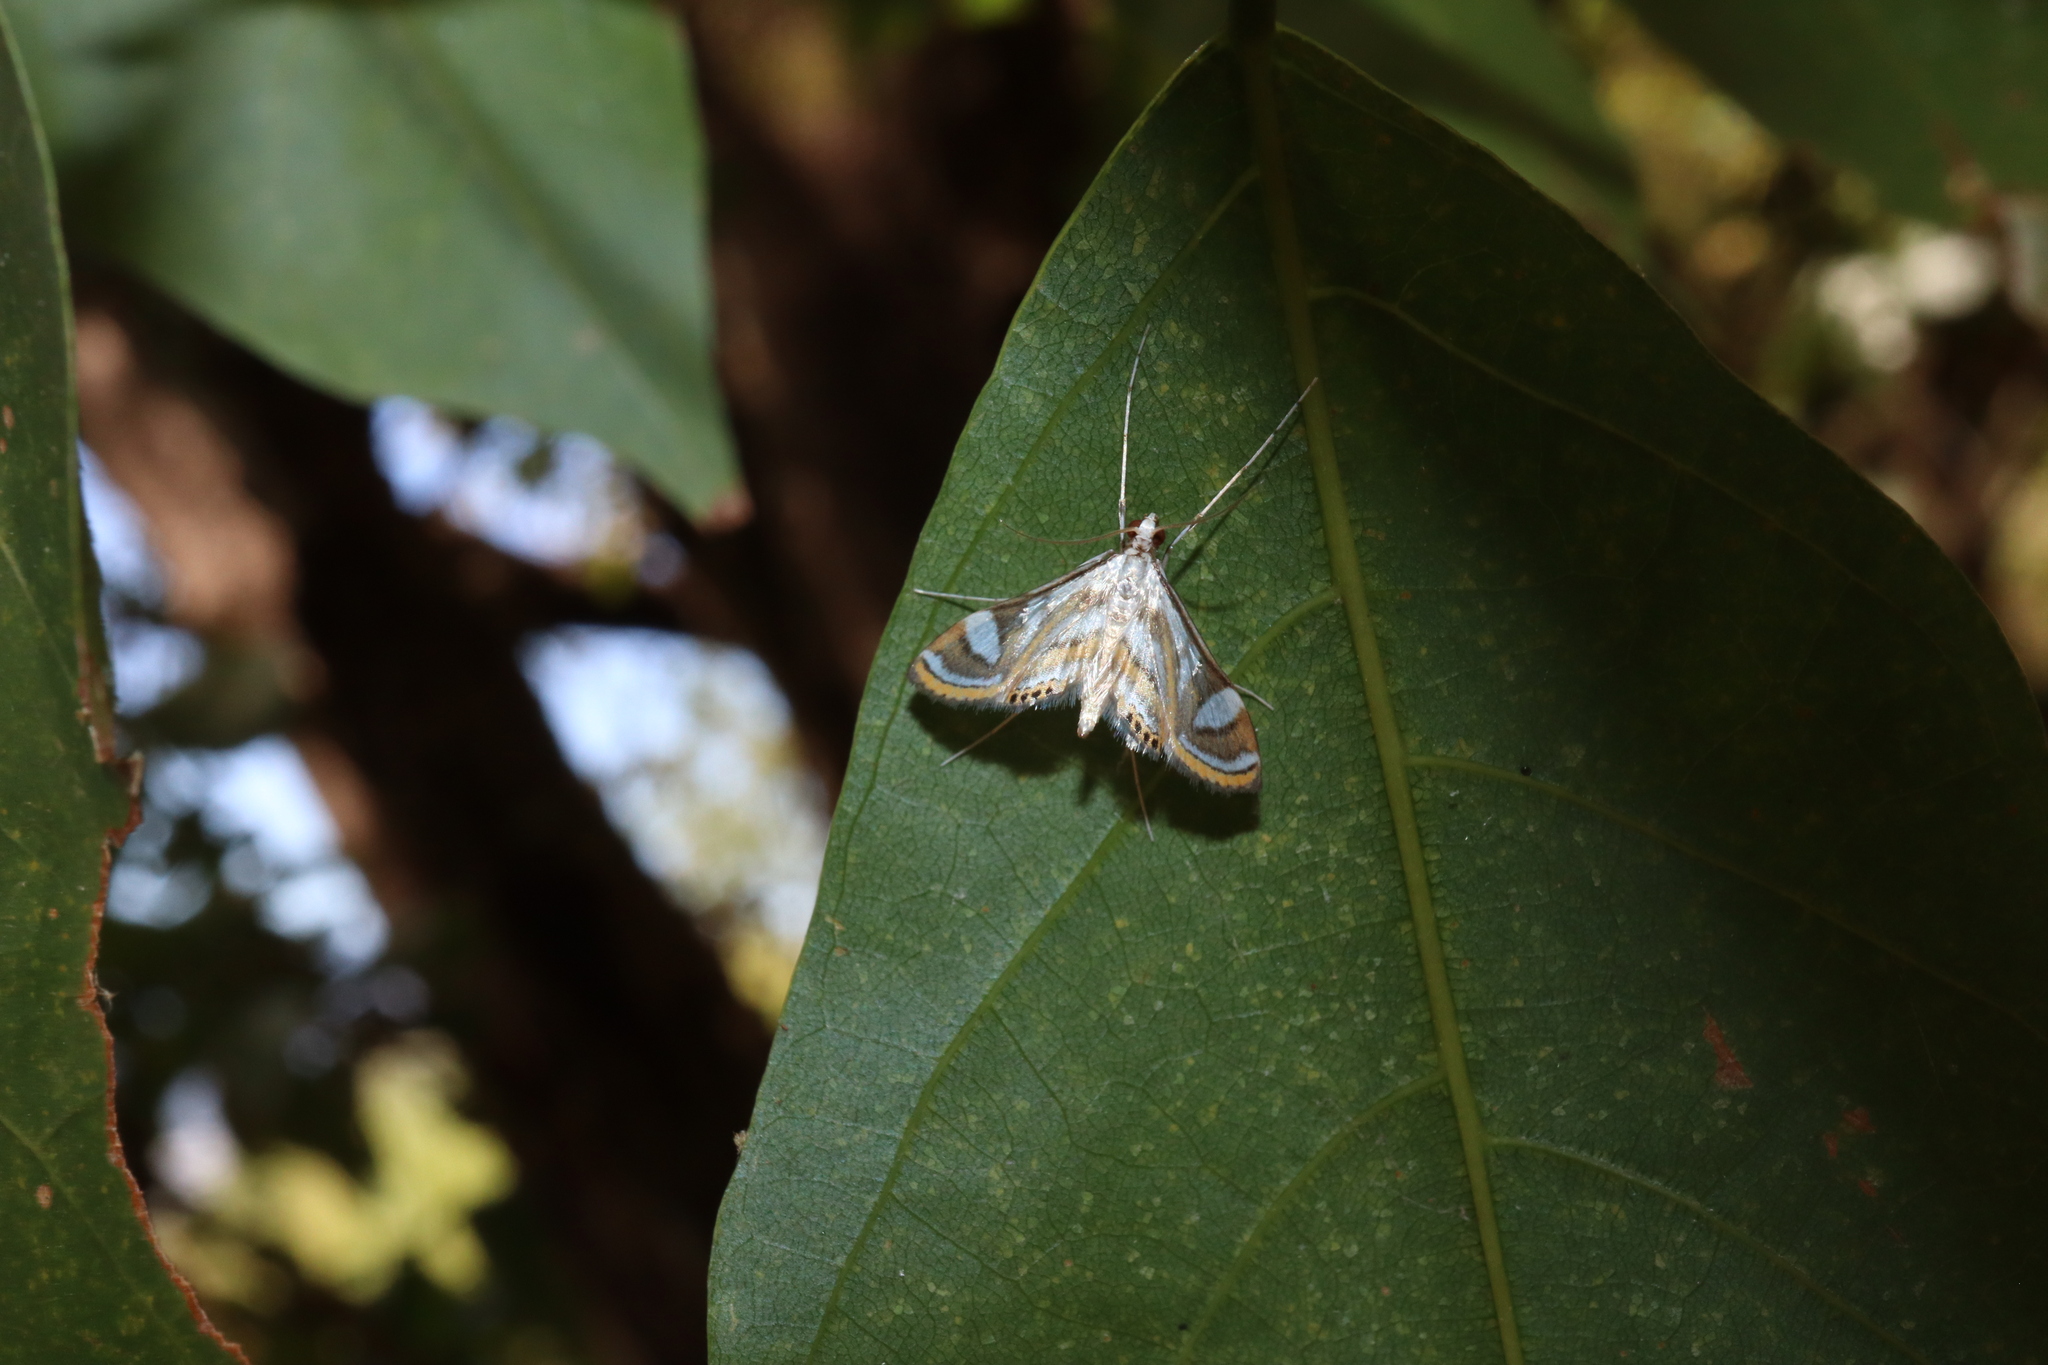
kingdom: Animalia
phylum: Arthropoda
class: Insecta
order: Lepidoptera
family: Crambidae
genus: Strepsinoma
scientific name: Strepsinoma croesusalis
